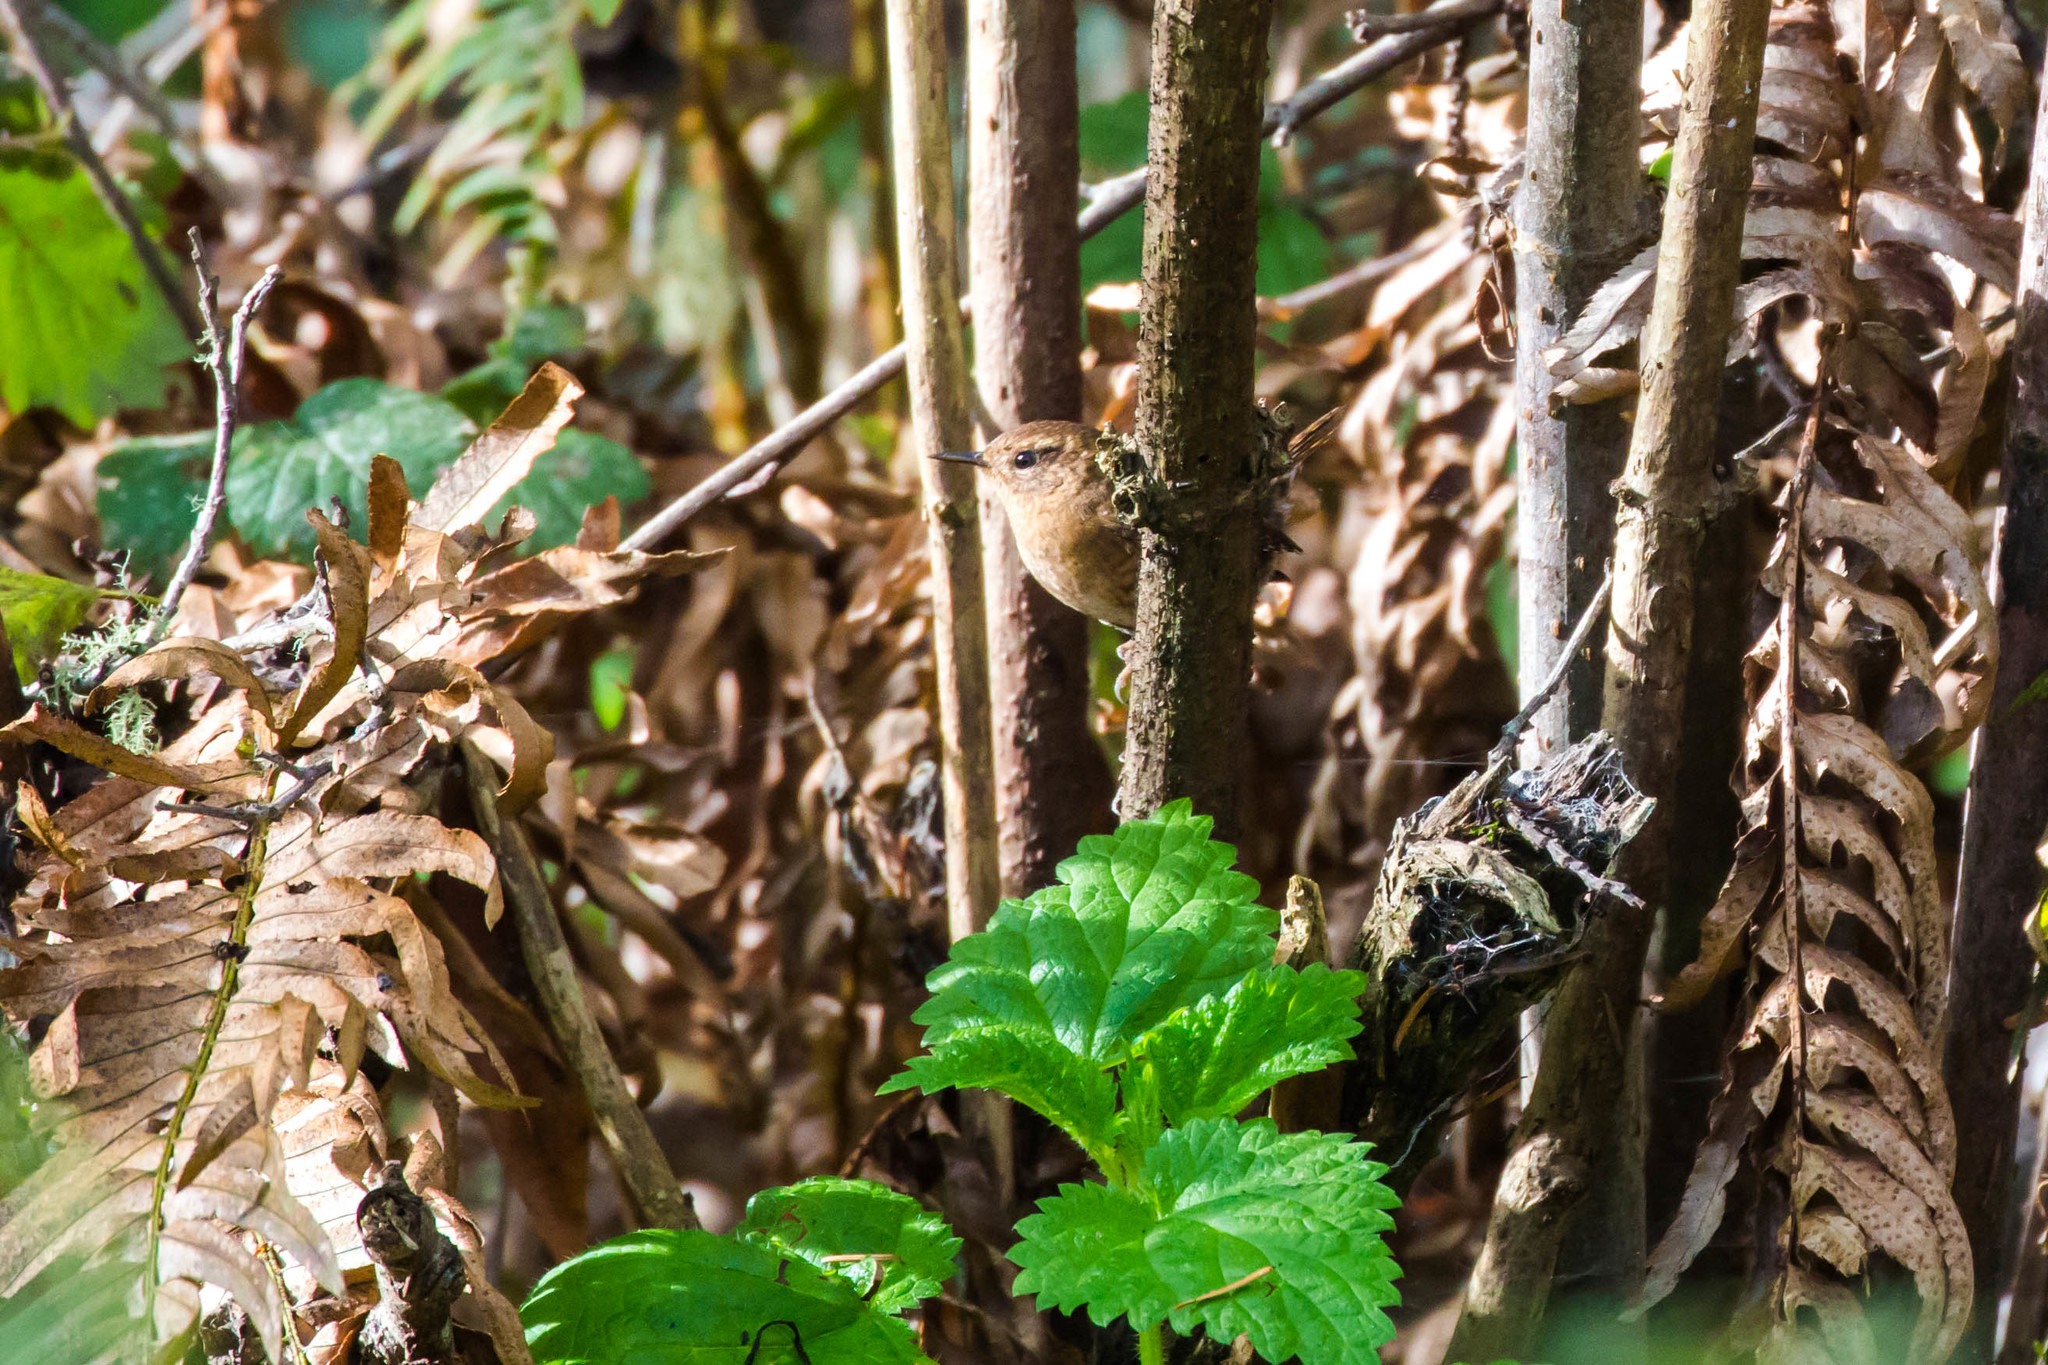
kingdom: Animalia
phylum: Chordata
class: Aves
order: Passeriformes
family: Troglodytidae
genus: Troglodytes
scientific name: Troglodytes pacificus
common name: Pacific wren
